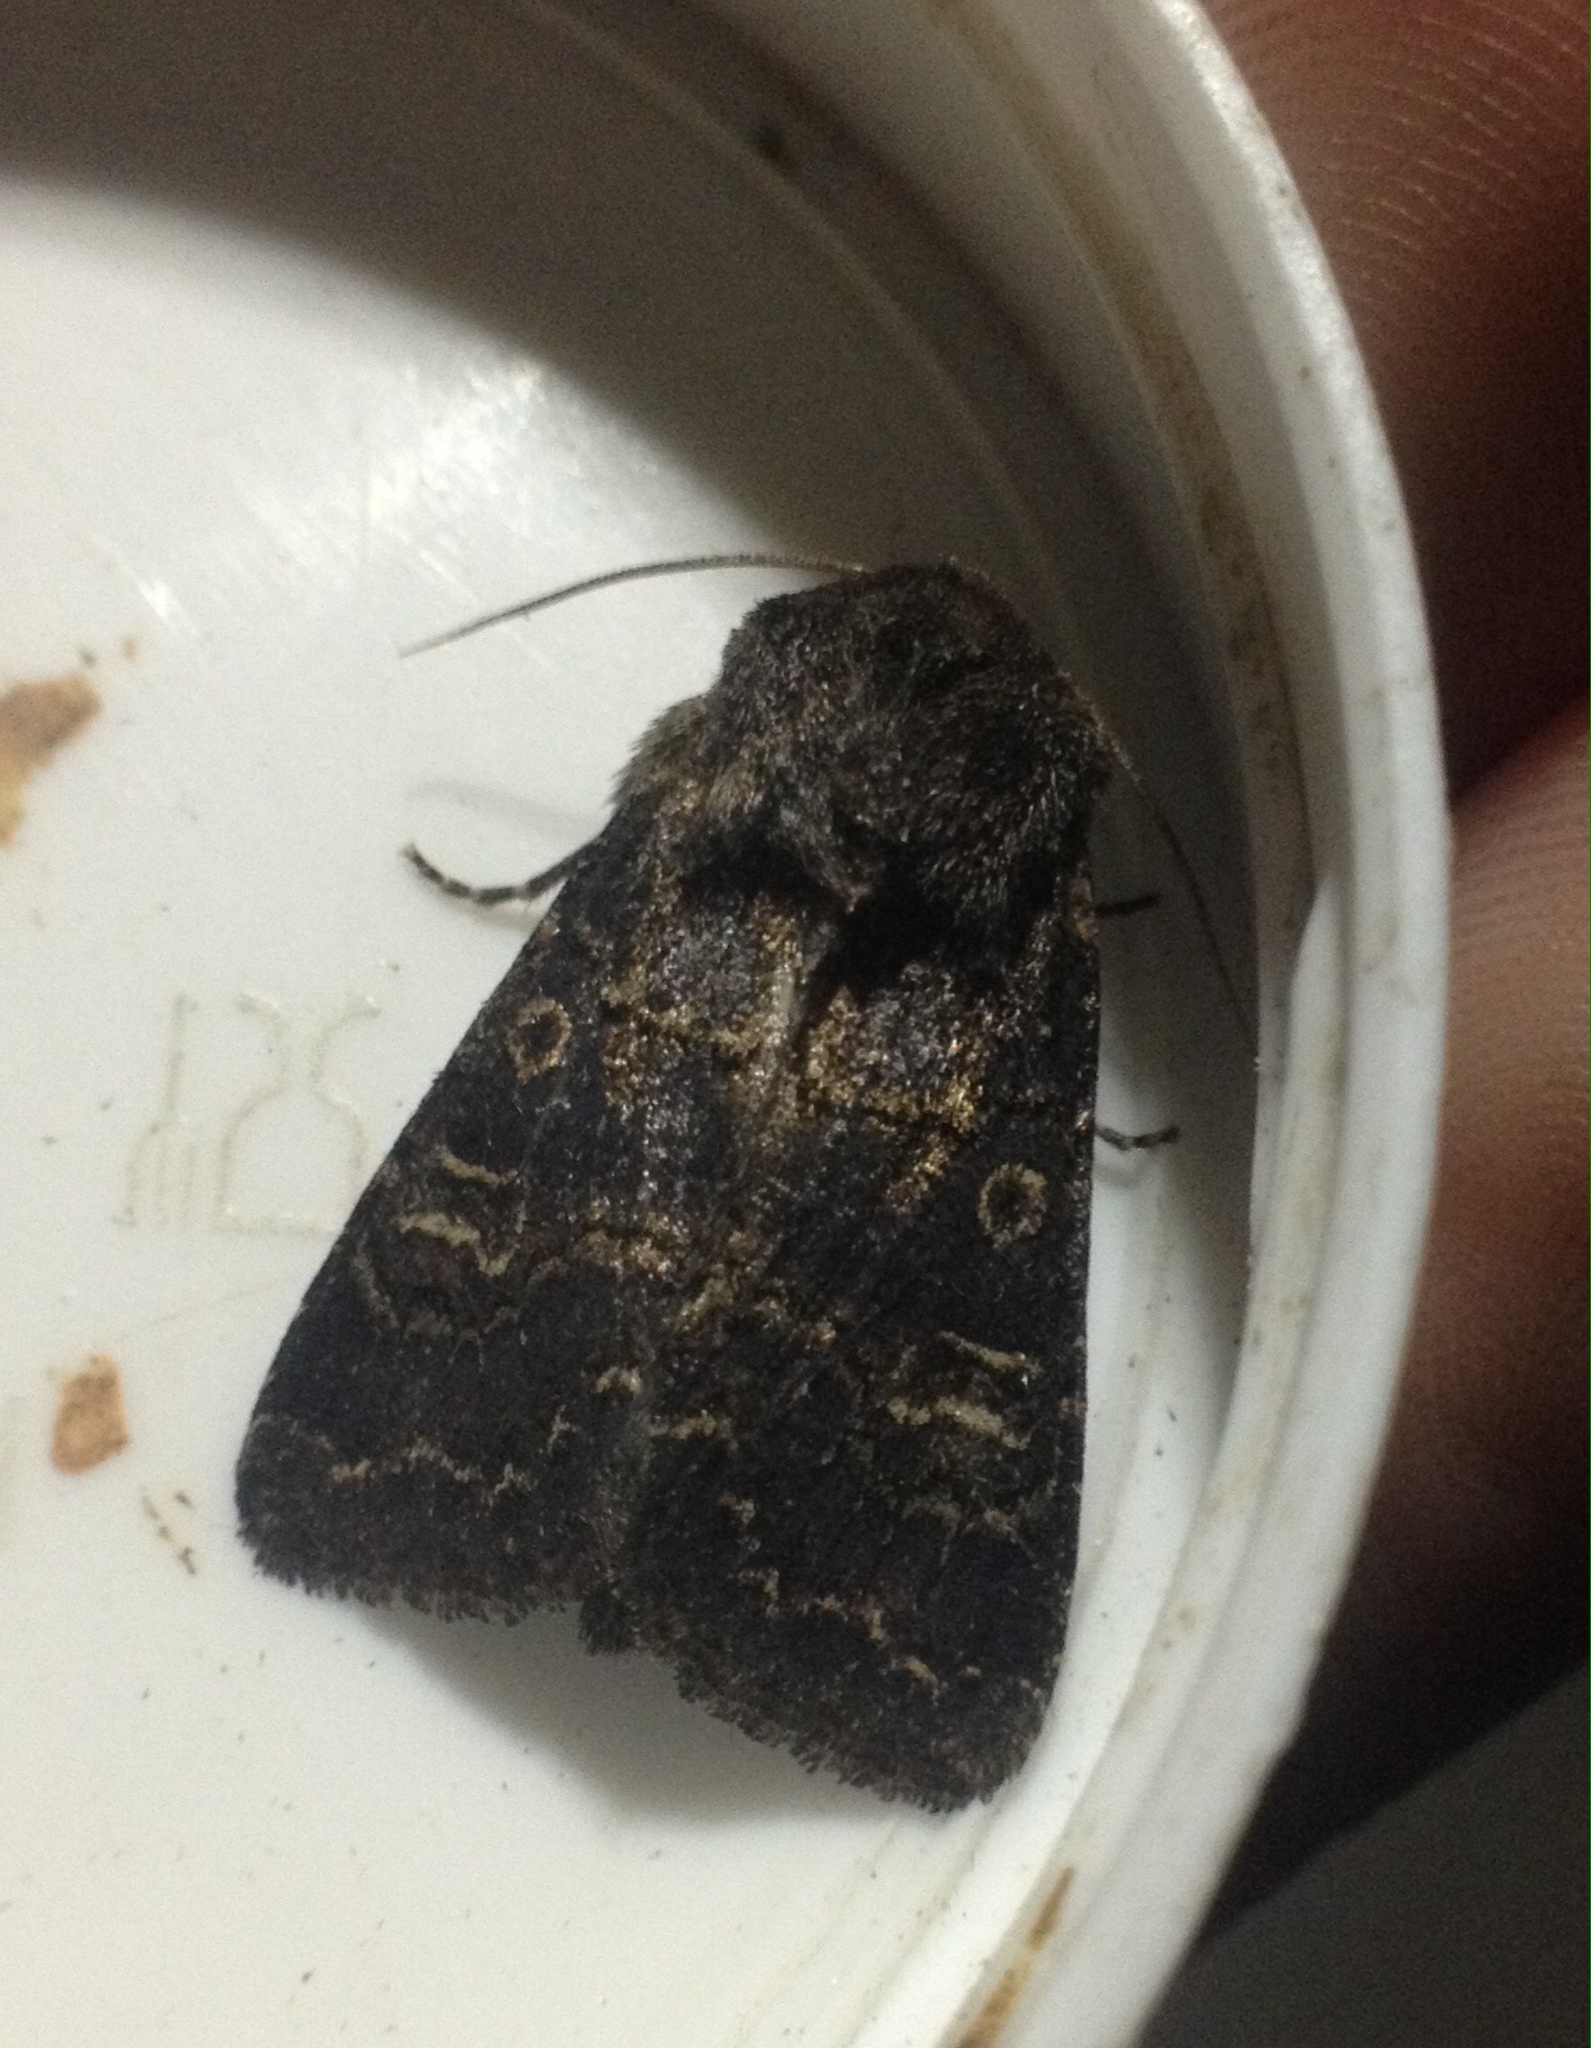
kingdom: Animalia
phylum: Arthropoda
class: Insecta
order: Lepidoptera
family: Noctuidae
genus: Tholera
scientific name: Tholera cespitis
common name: Hedge rustic
